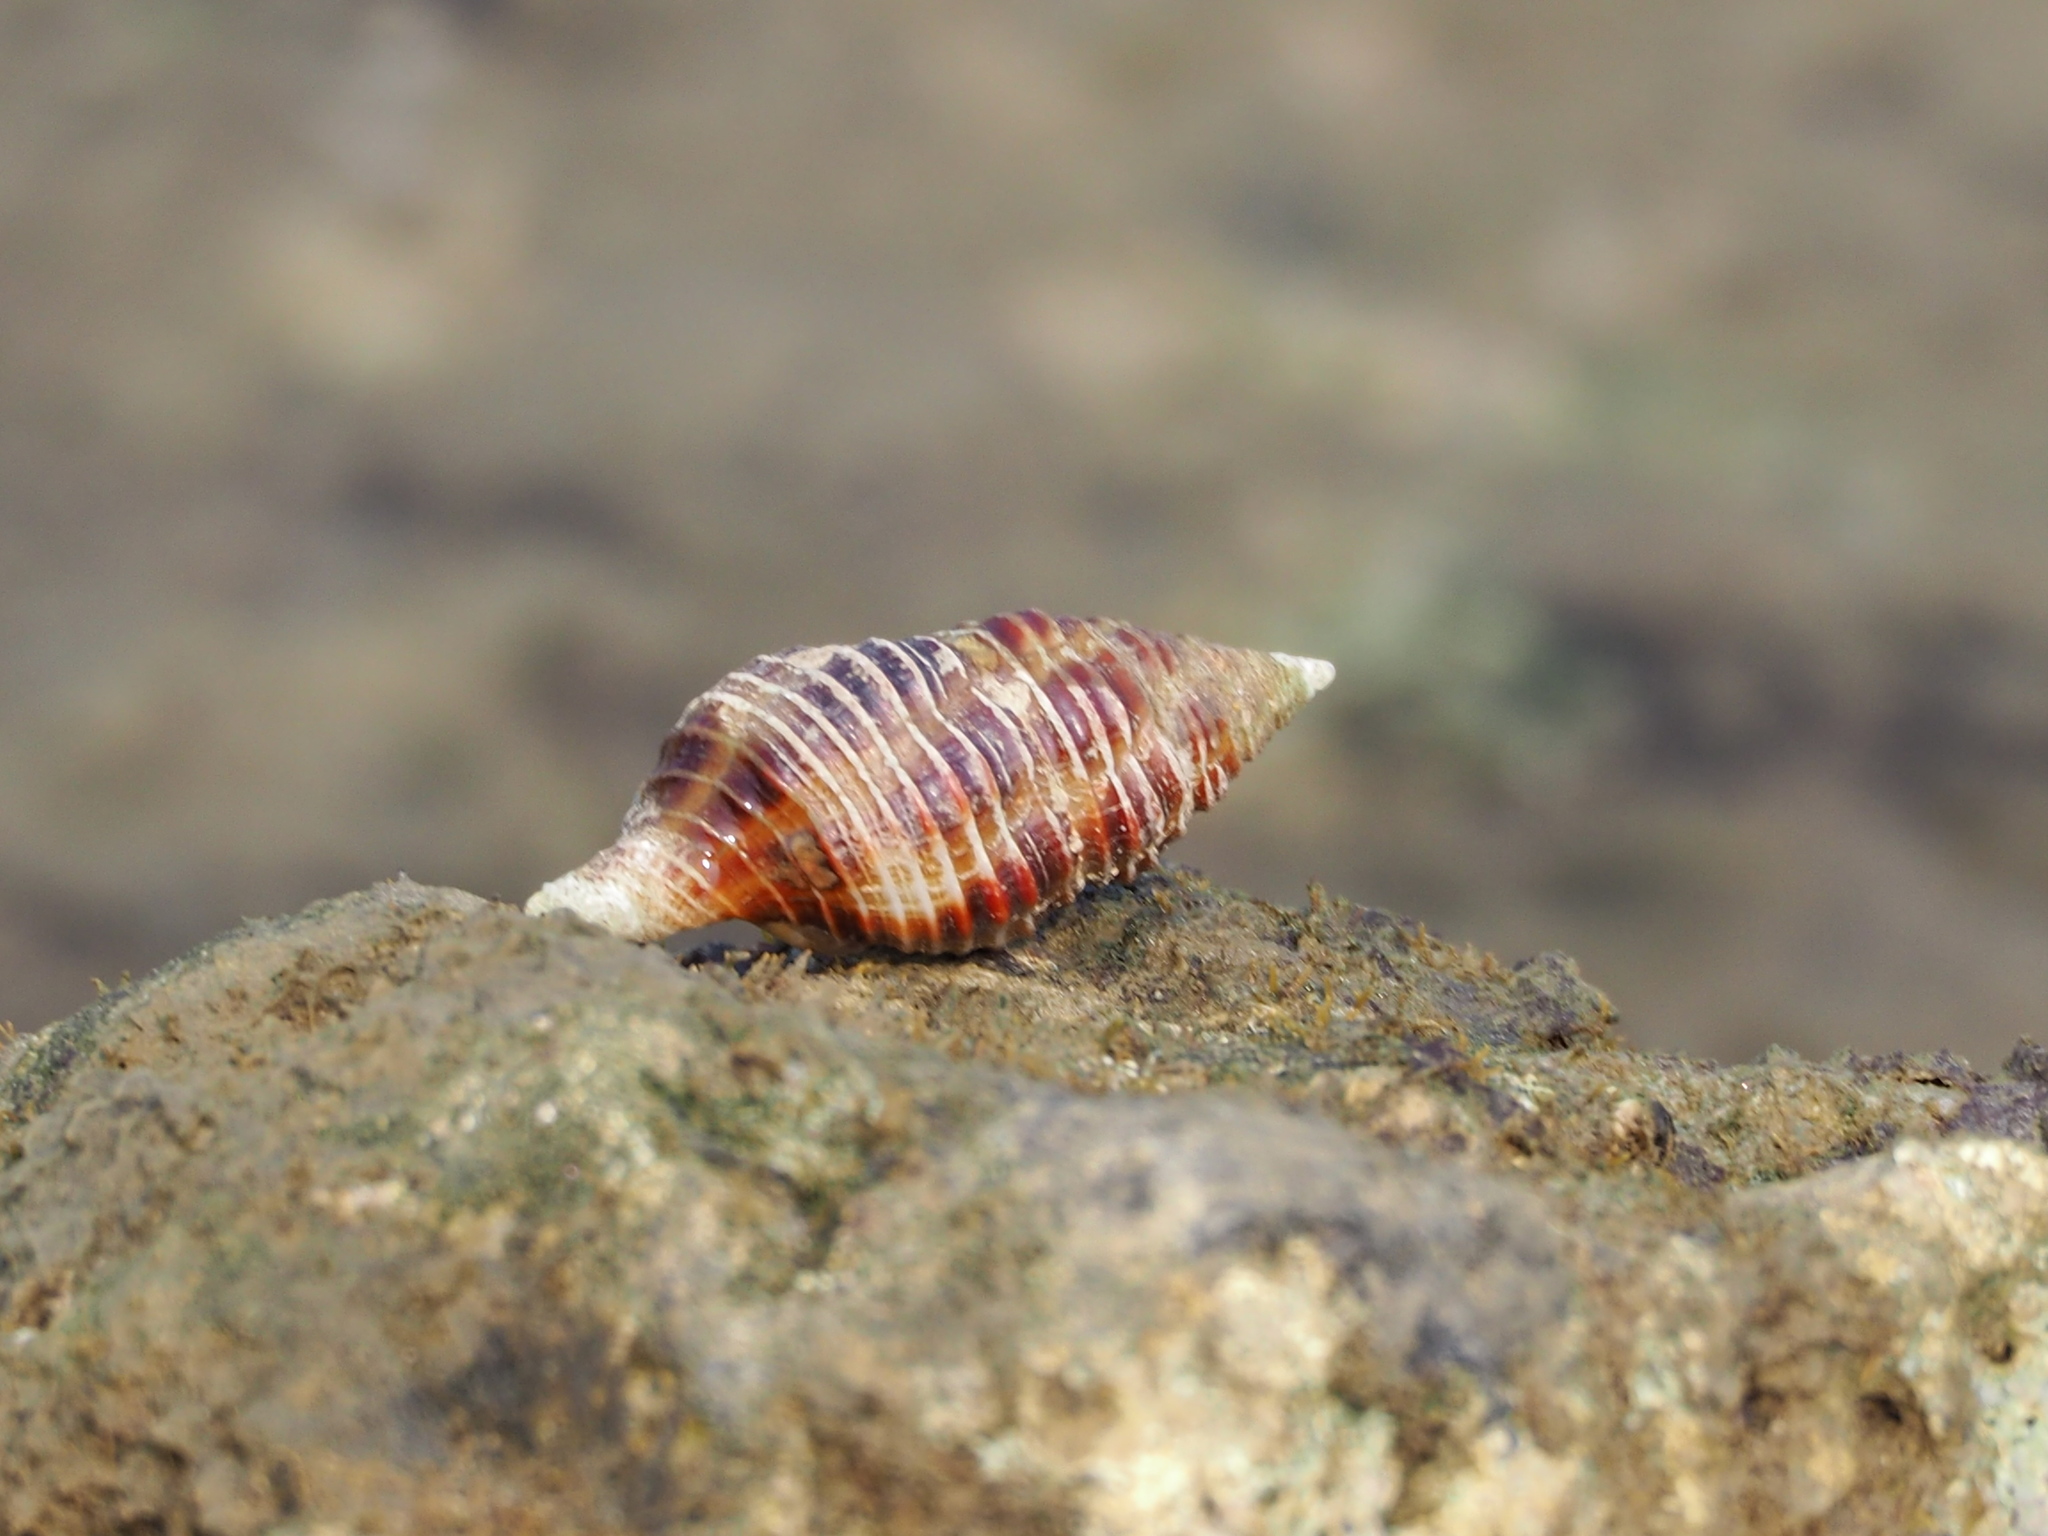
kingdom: Animalia
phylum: Mollusca
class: Gastropoda
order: Neogastropoda
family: Fasciolariidae
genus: Turrilatirus
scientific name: Turrilatirus craticulatus
